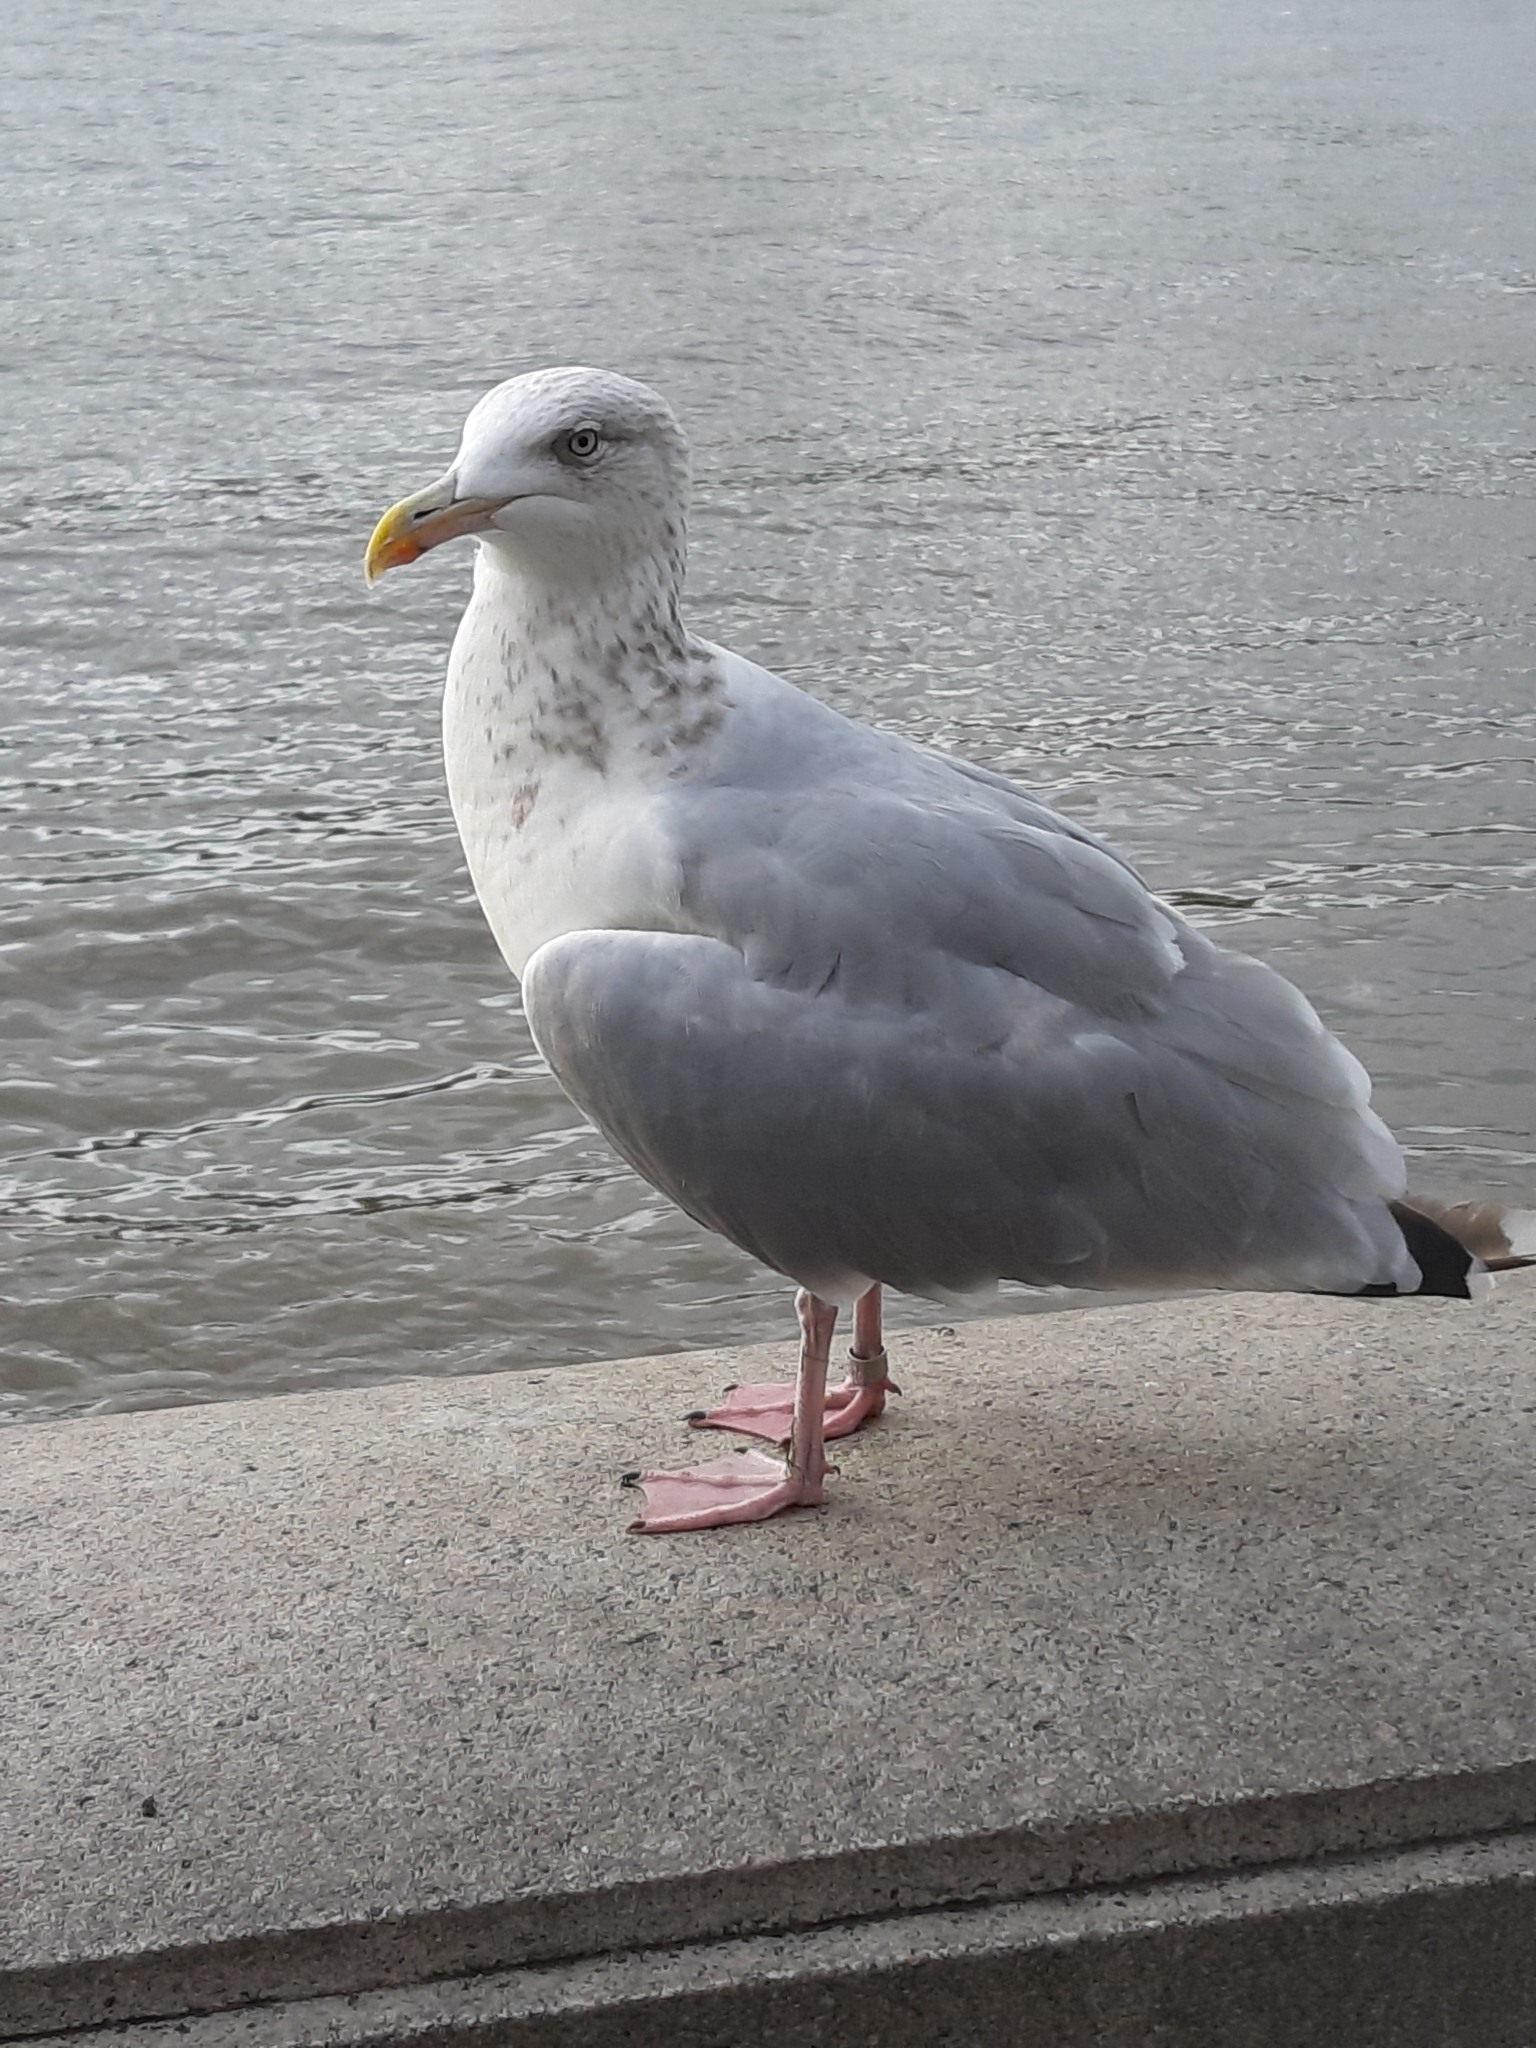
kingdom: Animalia
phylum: Chordata
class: Aves
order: Charadriiformes
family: Laridae
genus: Larus
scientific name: Larus argentatus
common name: Herring gull
